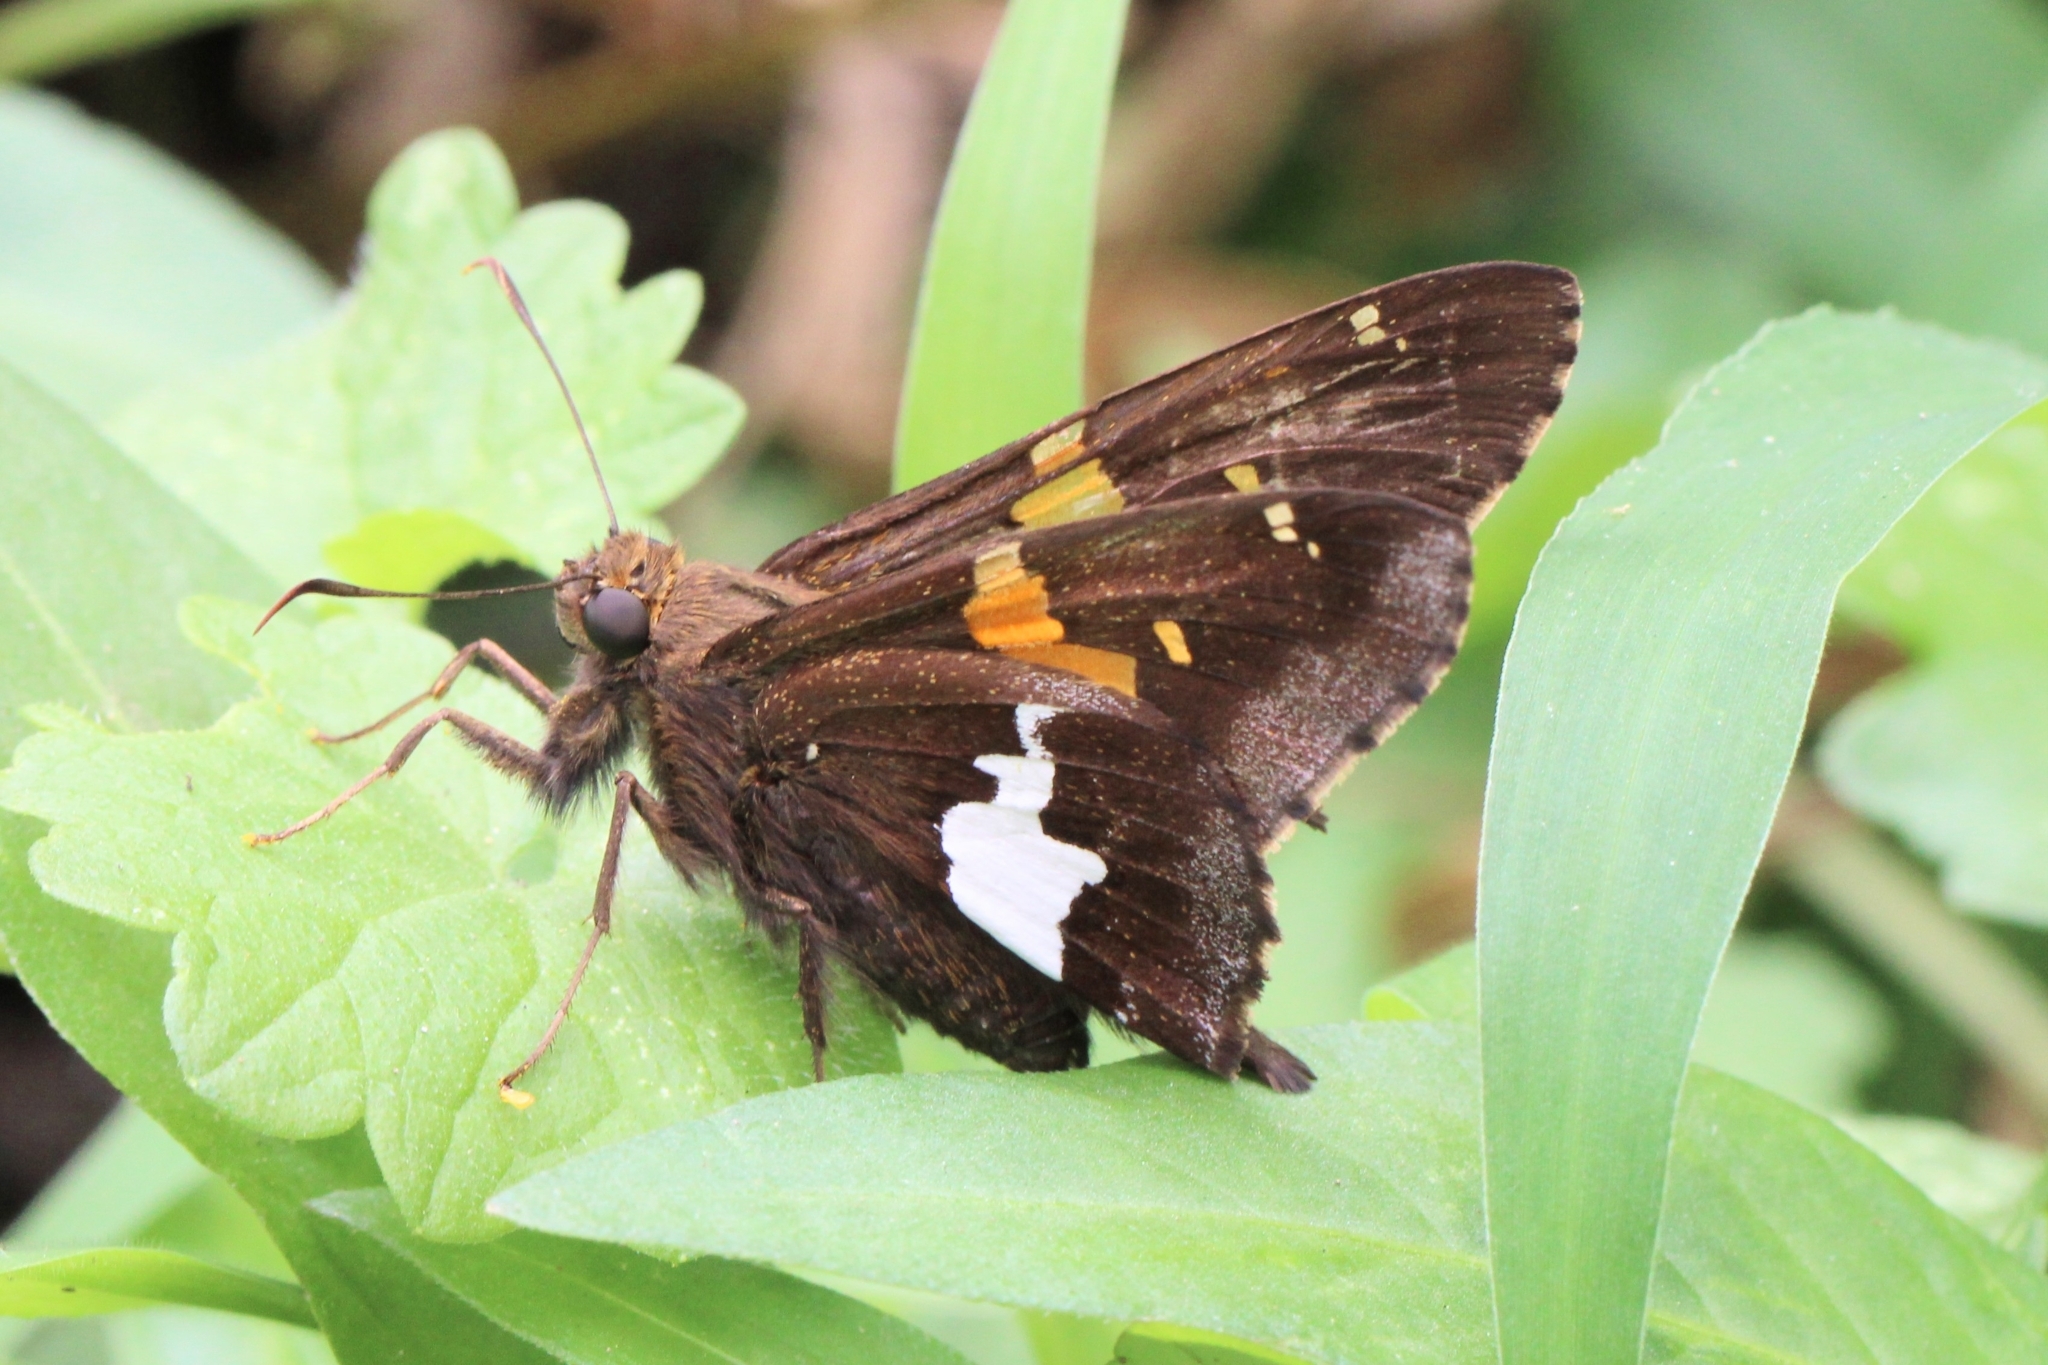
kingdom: Animalia
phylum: Arthropoda
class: Insecta
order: Lepidoptera
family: Hesperiidae
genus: Epargyreus
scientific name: Epargyreus clarus
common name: Silver-spotted skipper
